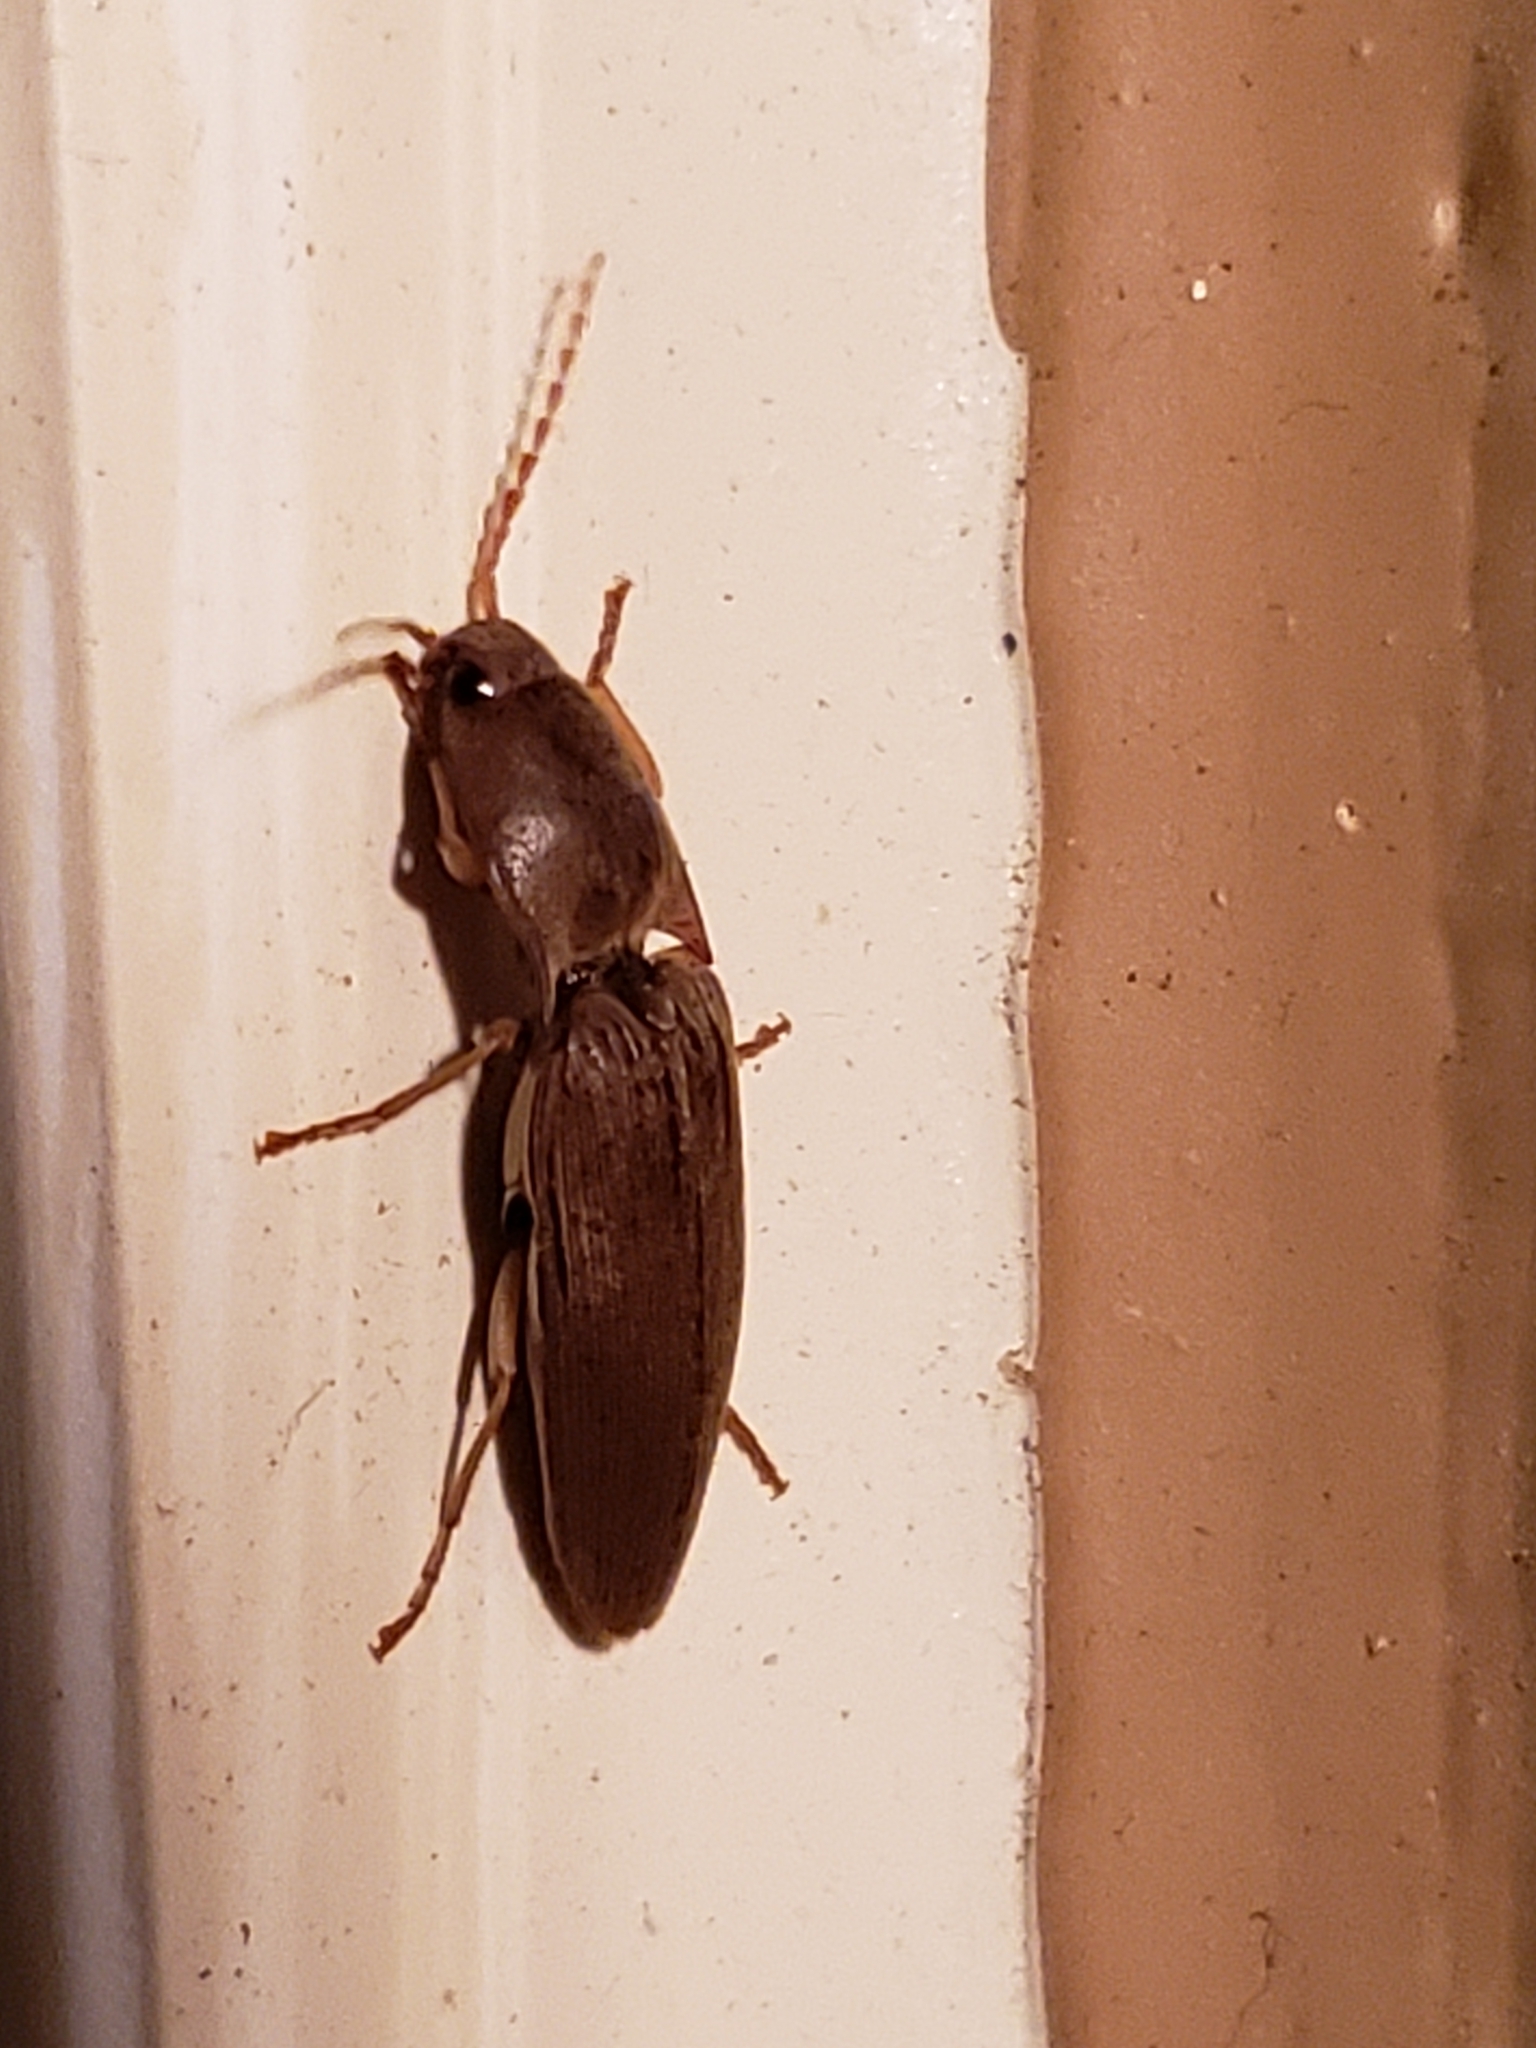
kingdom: Animalia
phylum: Arthropoda
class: Insecta
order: Coleoptera
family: Elateridae
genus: Monocrepidius
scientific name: Monocrepidius lividus
